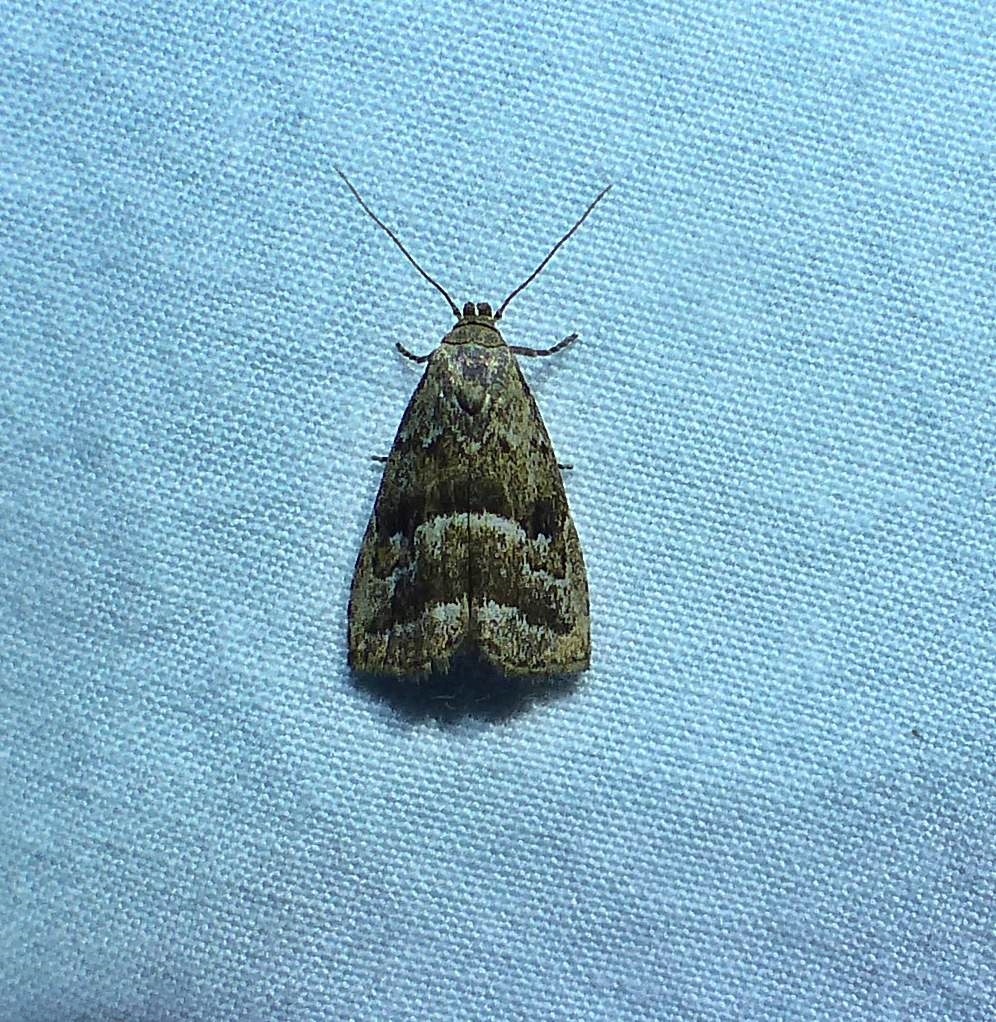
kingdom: Animalia
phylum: Arthropoda
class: Insecta
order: Lepidoptera
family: Erebidae
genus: Hypenodes
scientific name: Hypenodes caducus
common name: Large hypenodes moth
